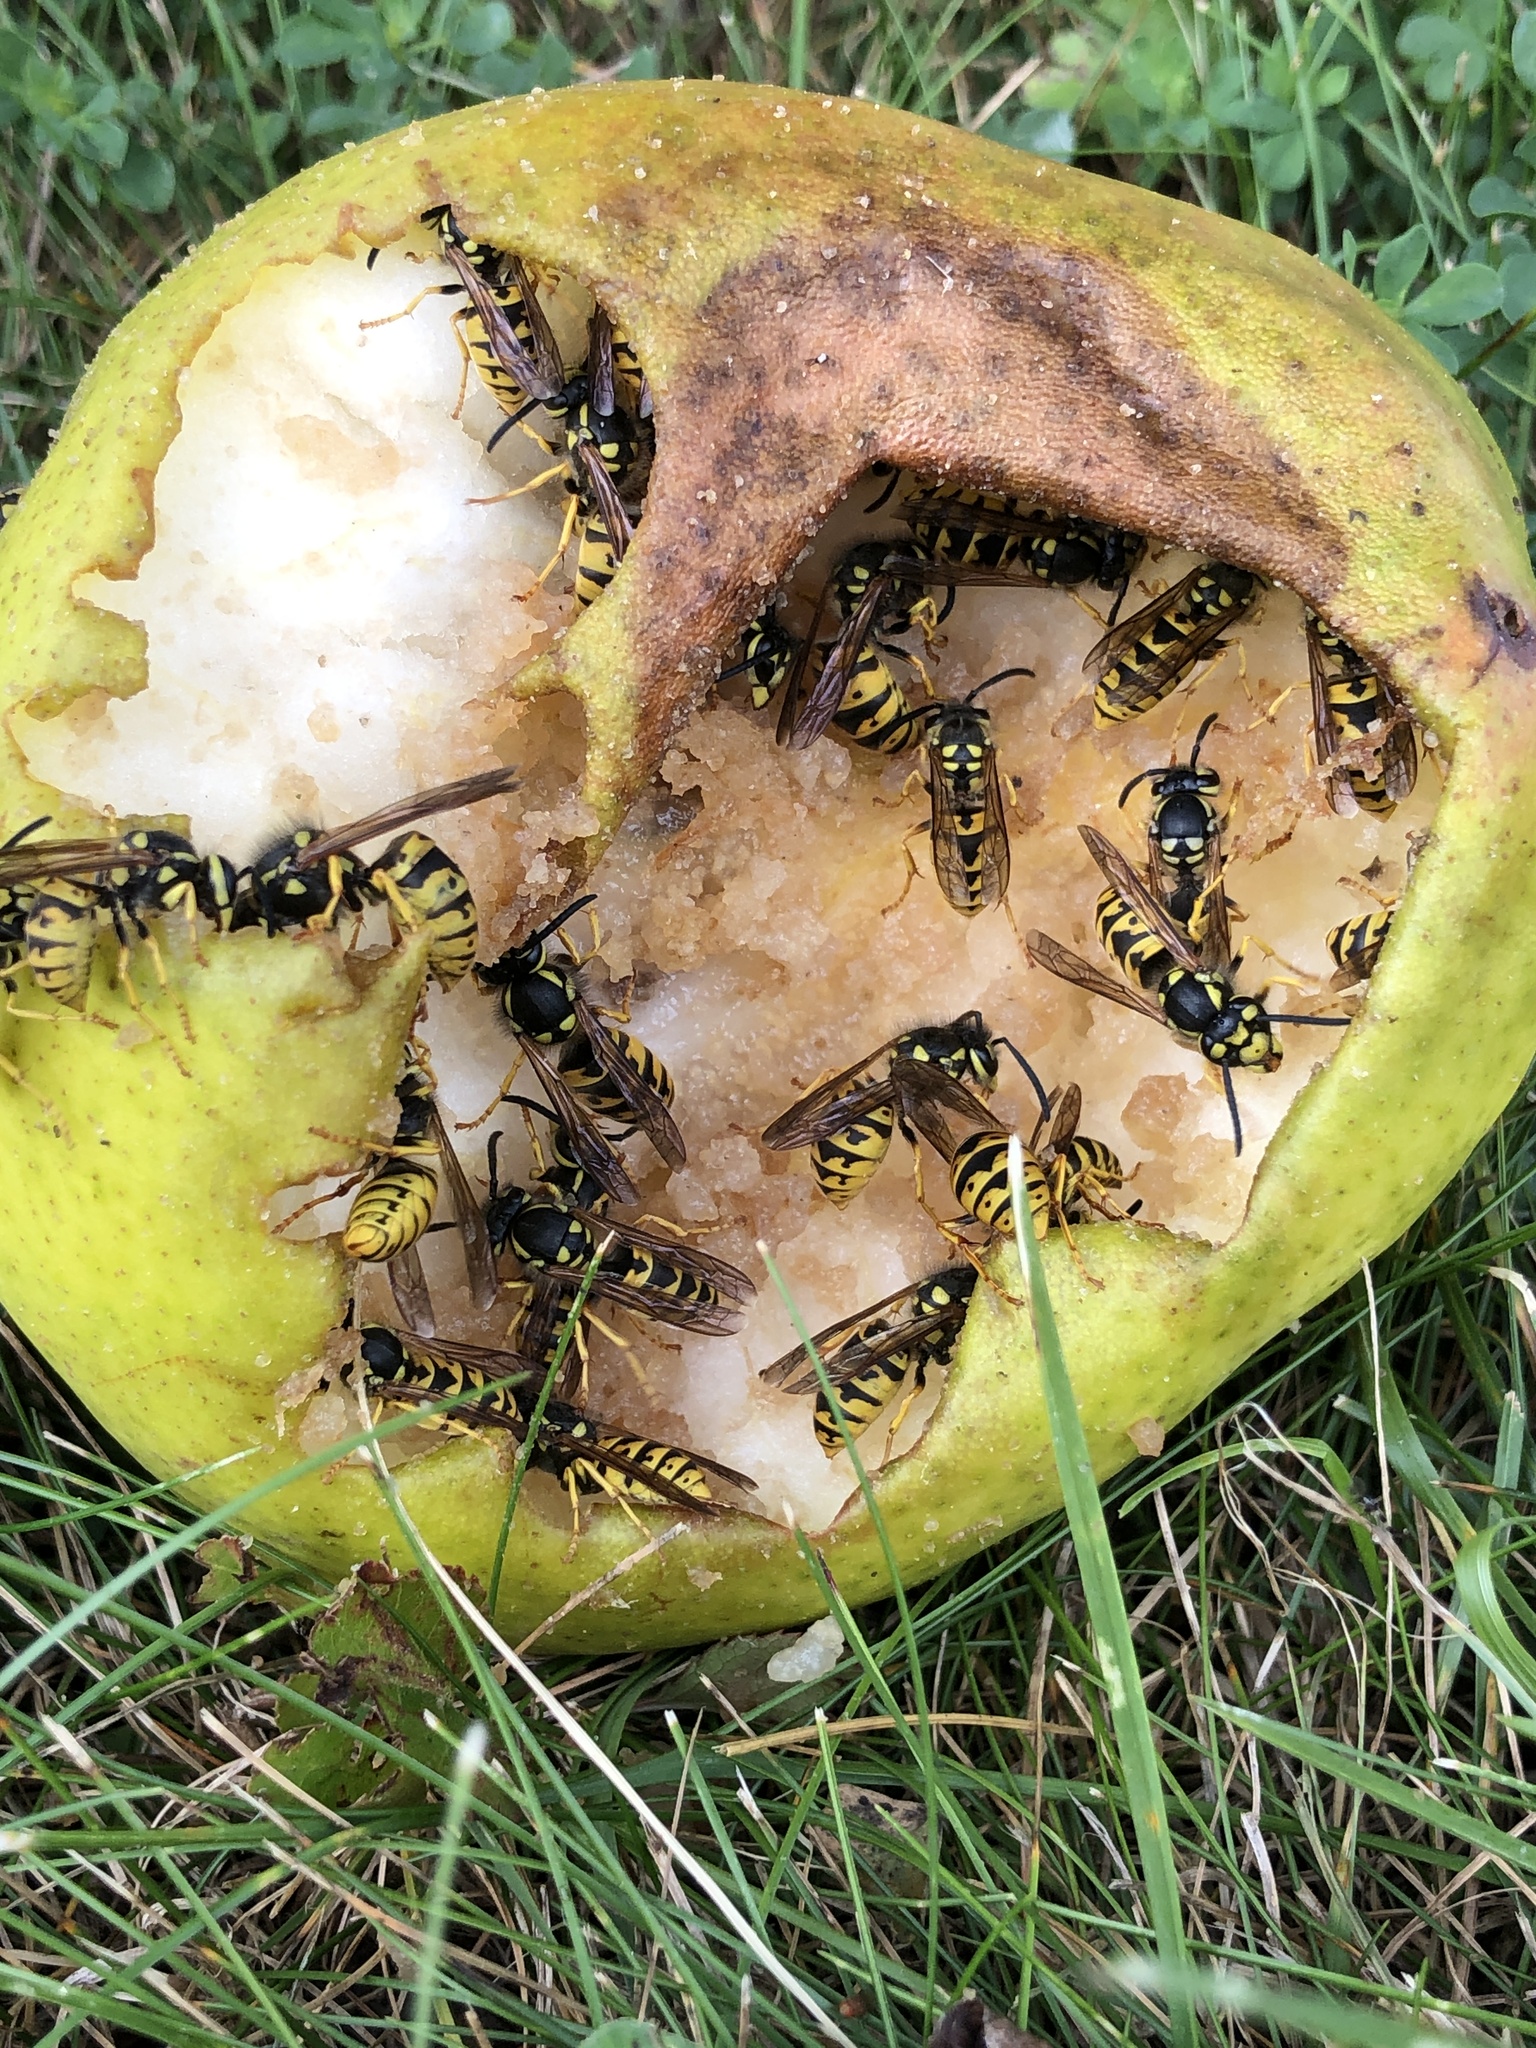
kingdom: Animalia
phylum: Arthropoda
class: Insecta
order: Hymenoptera
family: Vespidae
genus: Vespula
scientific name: Vespula germanica
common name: German wasp
